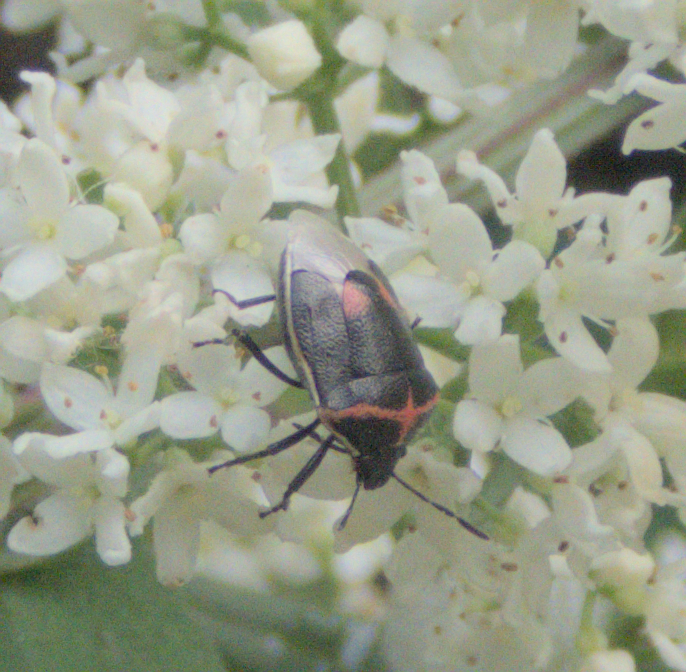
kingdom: Animalia
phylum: Arthropoda
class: Insecta
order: Hemiptera
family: Pentatomidae
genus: Cosmopepla
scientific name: Cosmopepla lintneriana
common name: Twice-stabbed stink bug
